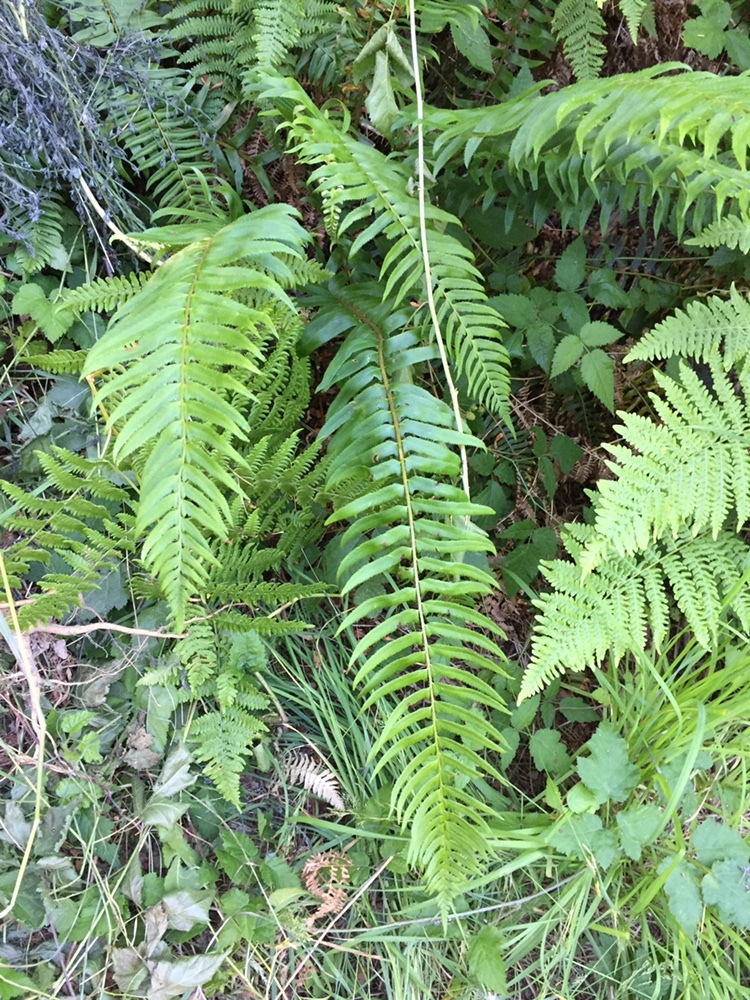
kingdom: Plantae
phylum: Tracheophyta
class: Polypodiopsida
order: Polypodiales
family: Dryopteridaceae
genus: Polystichum
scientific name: Polystichum munitum
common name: Western sword-fern
